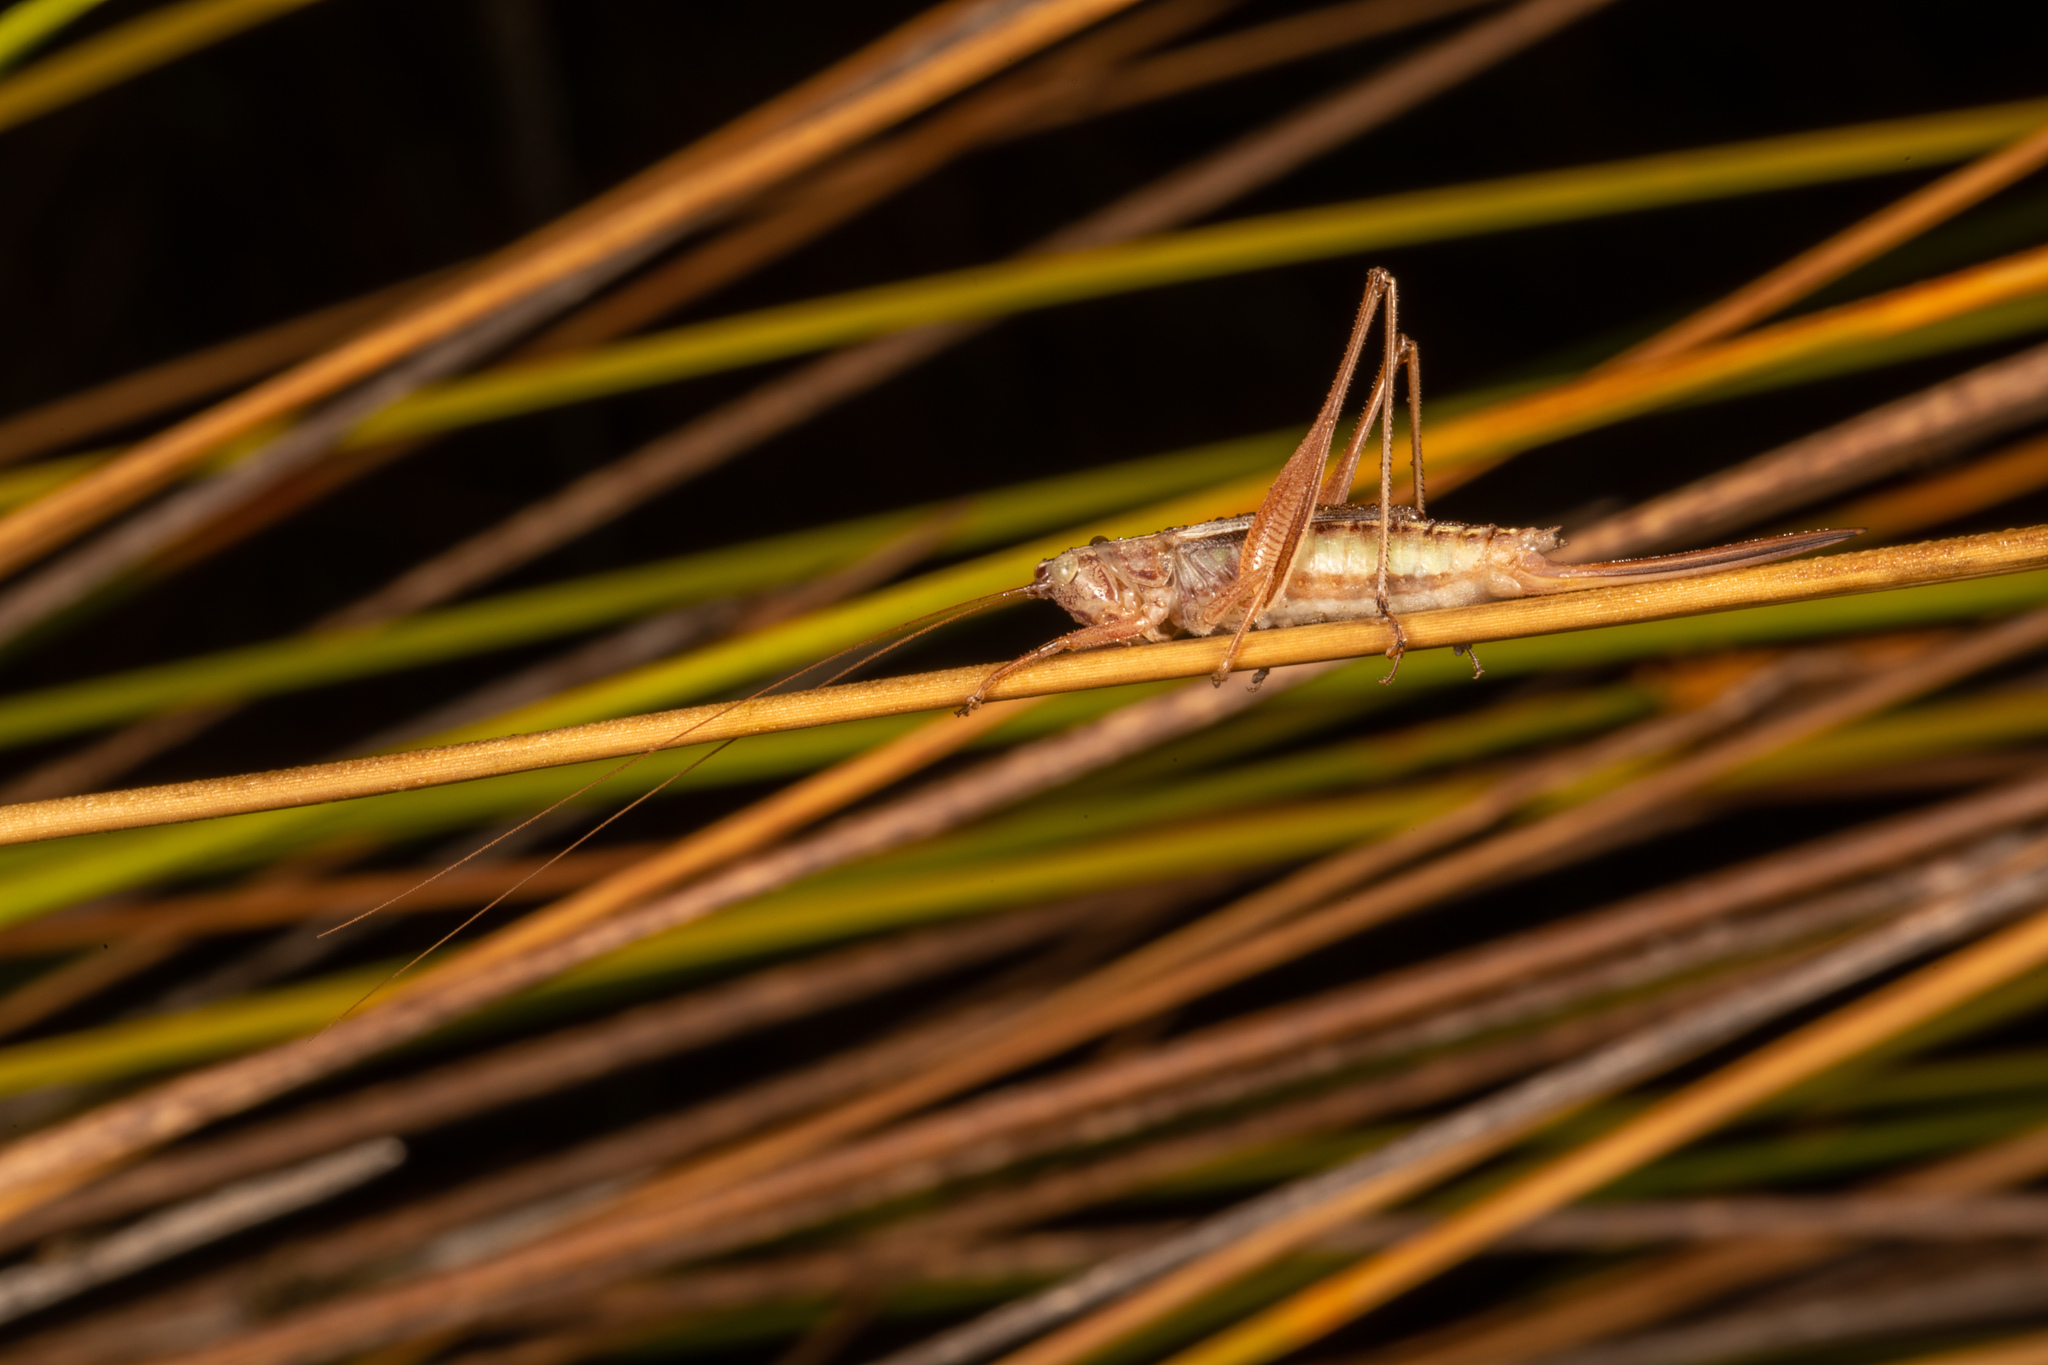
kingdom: Animalia
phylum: Arthropoda
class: Insecta
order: Orthoptera
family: Tettigoniidae
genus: Conocephalus
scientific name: Conocephalus albescens
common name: Whitish meadow katydid
